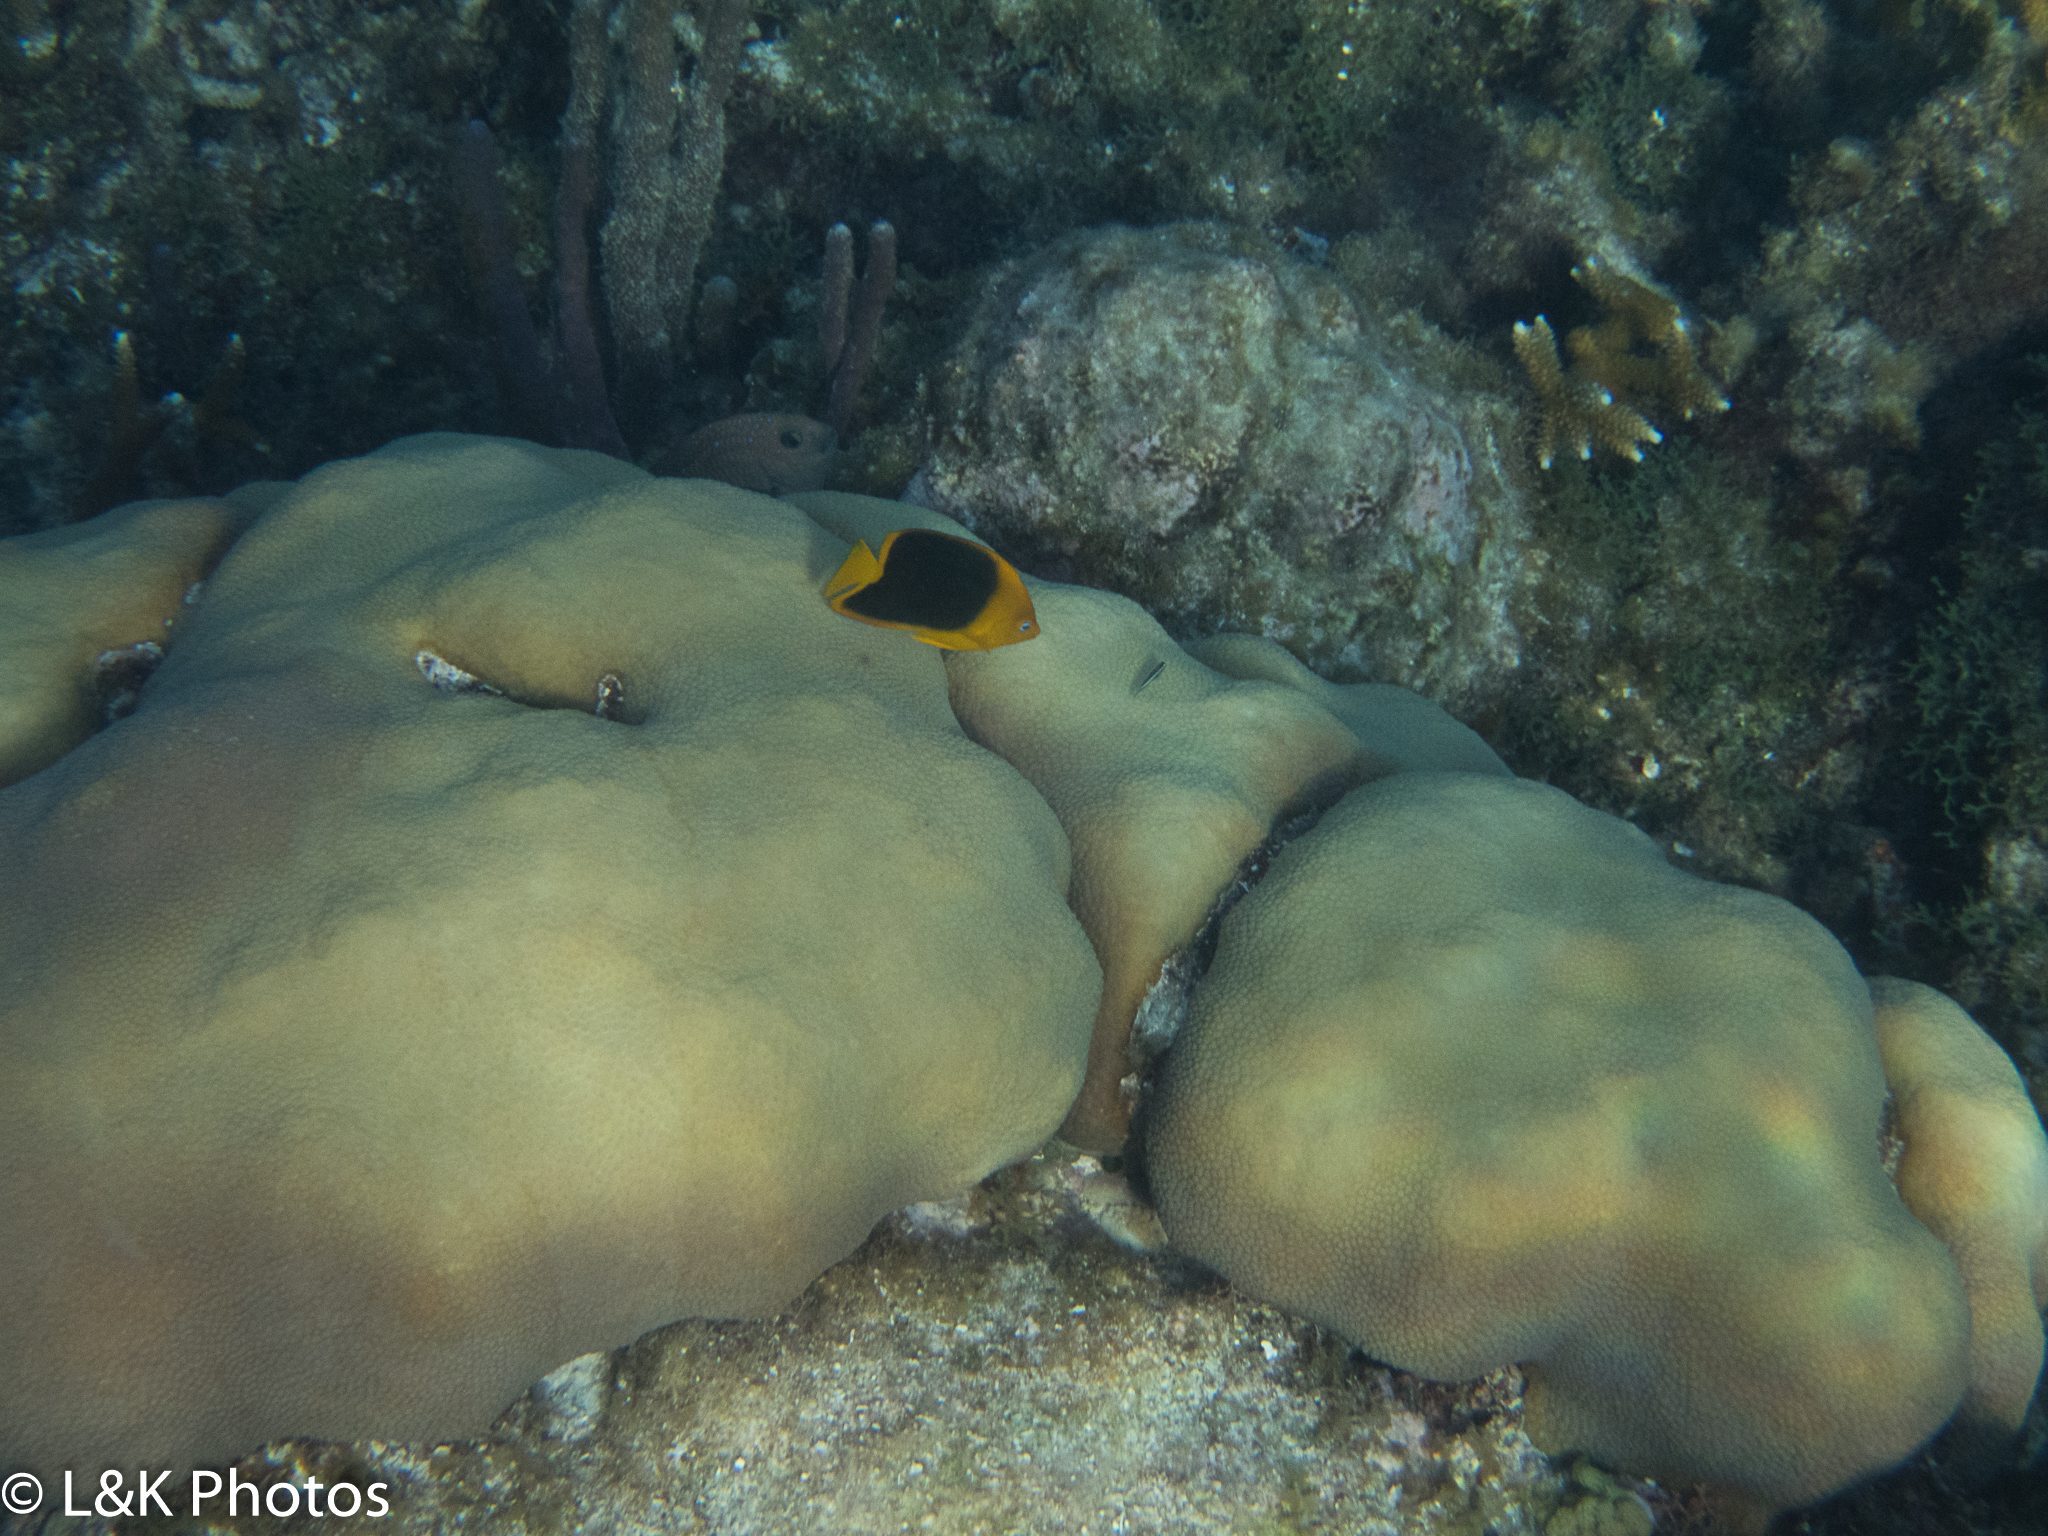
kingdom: Animalia
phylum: Chordata
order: Perciformes
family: Pomacanthidae
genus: Holacanthus
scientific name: Holacanthus tricolor
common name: Rock beauty
